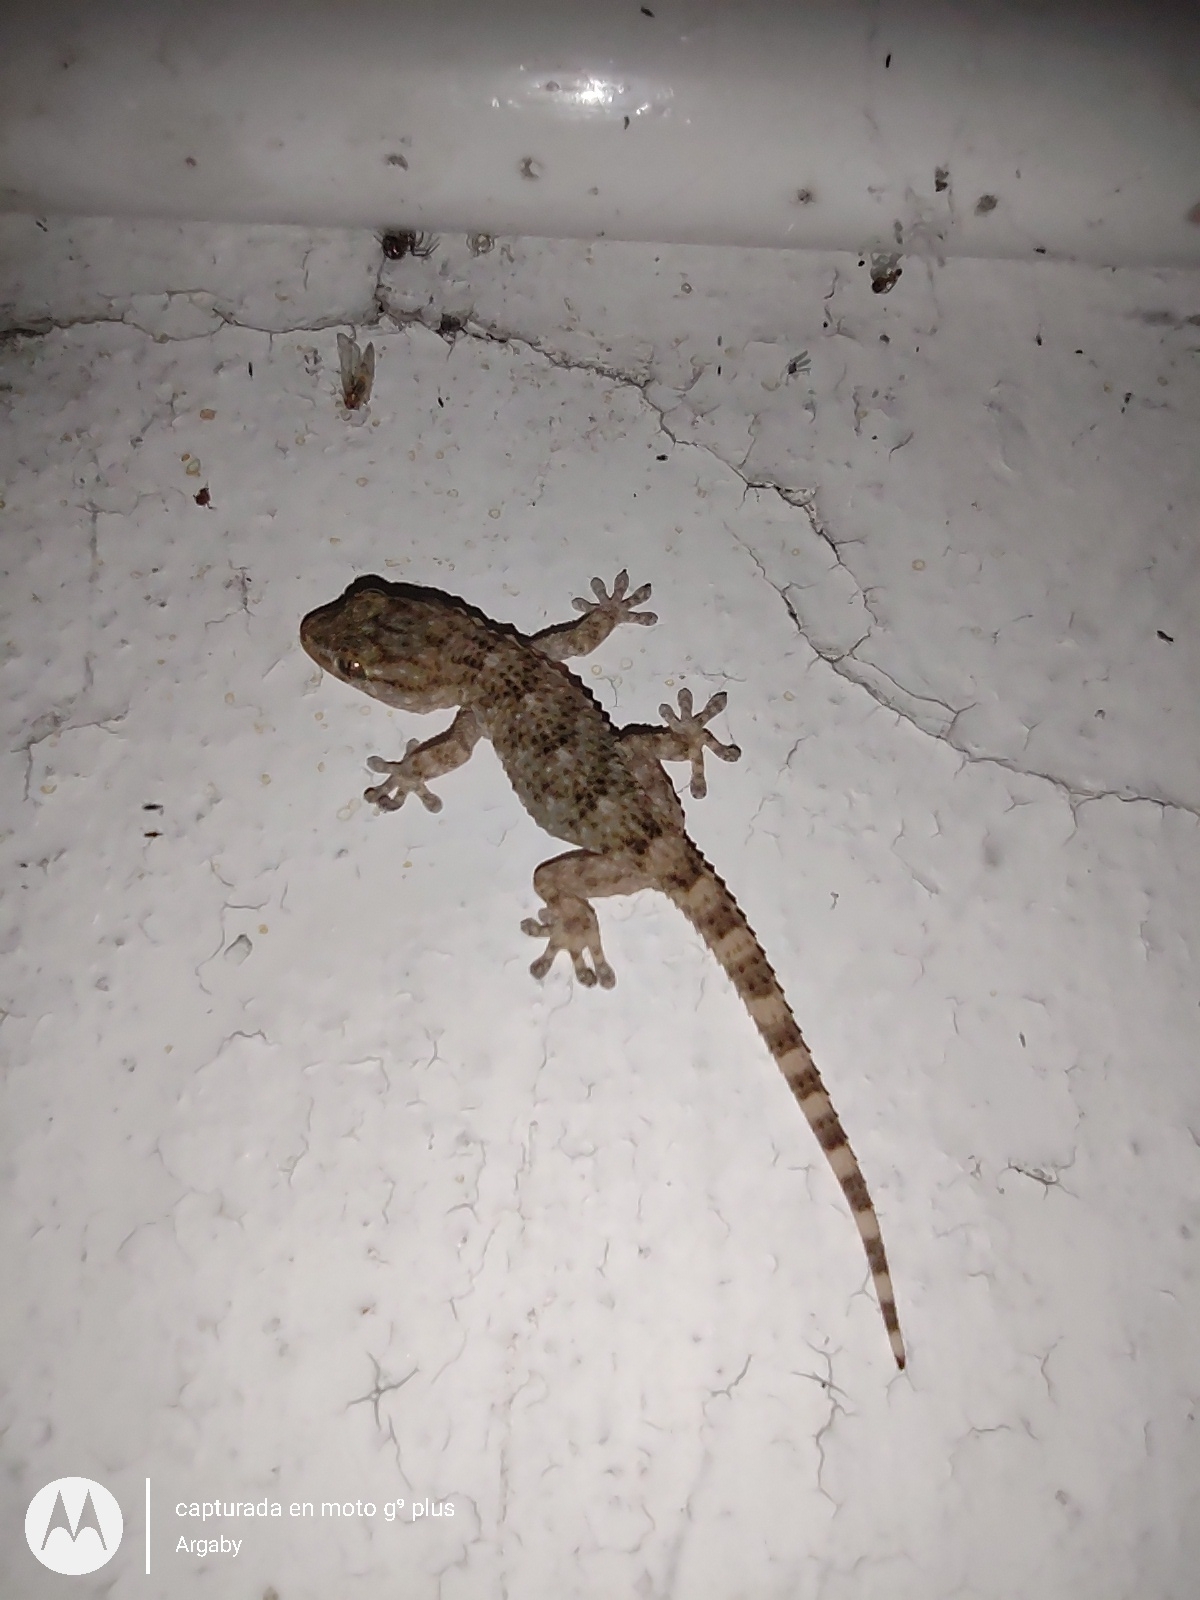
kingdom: Animalia
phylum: Chordata
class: Squamata
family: Phyllodactylidae
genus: Tarentola
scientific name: Tarentola mauritanica
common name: Moorish gecko
